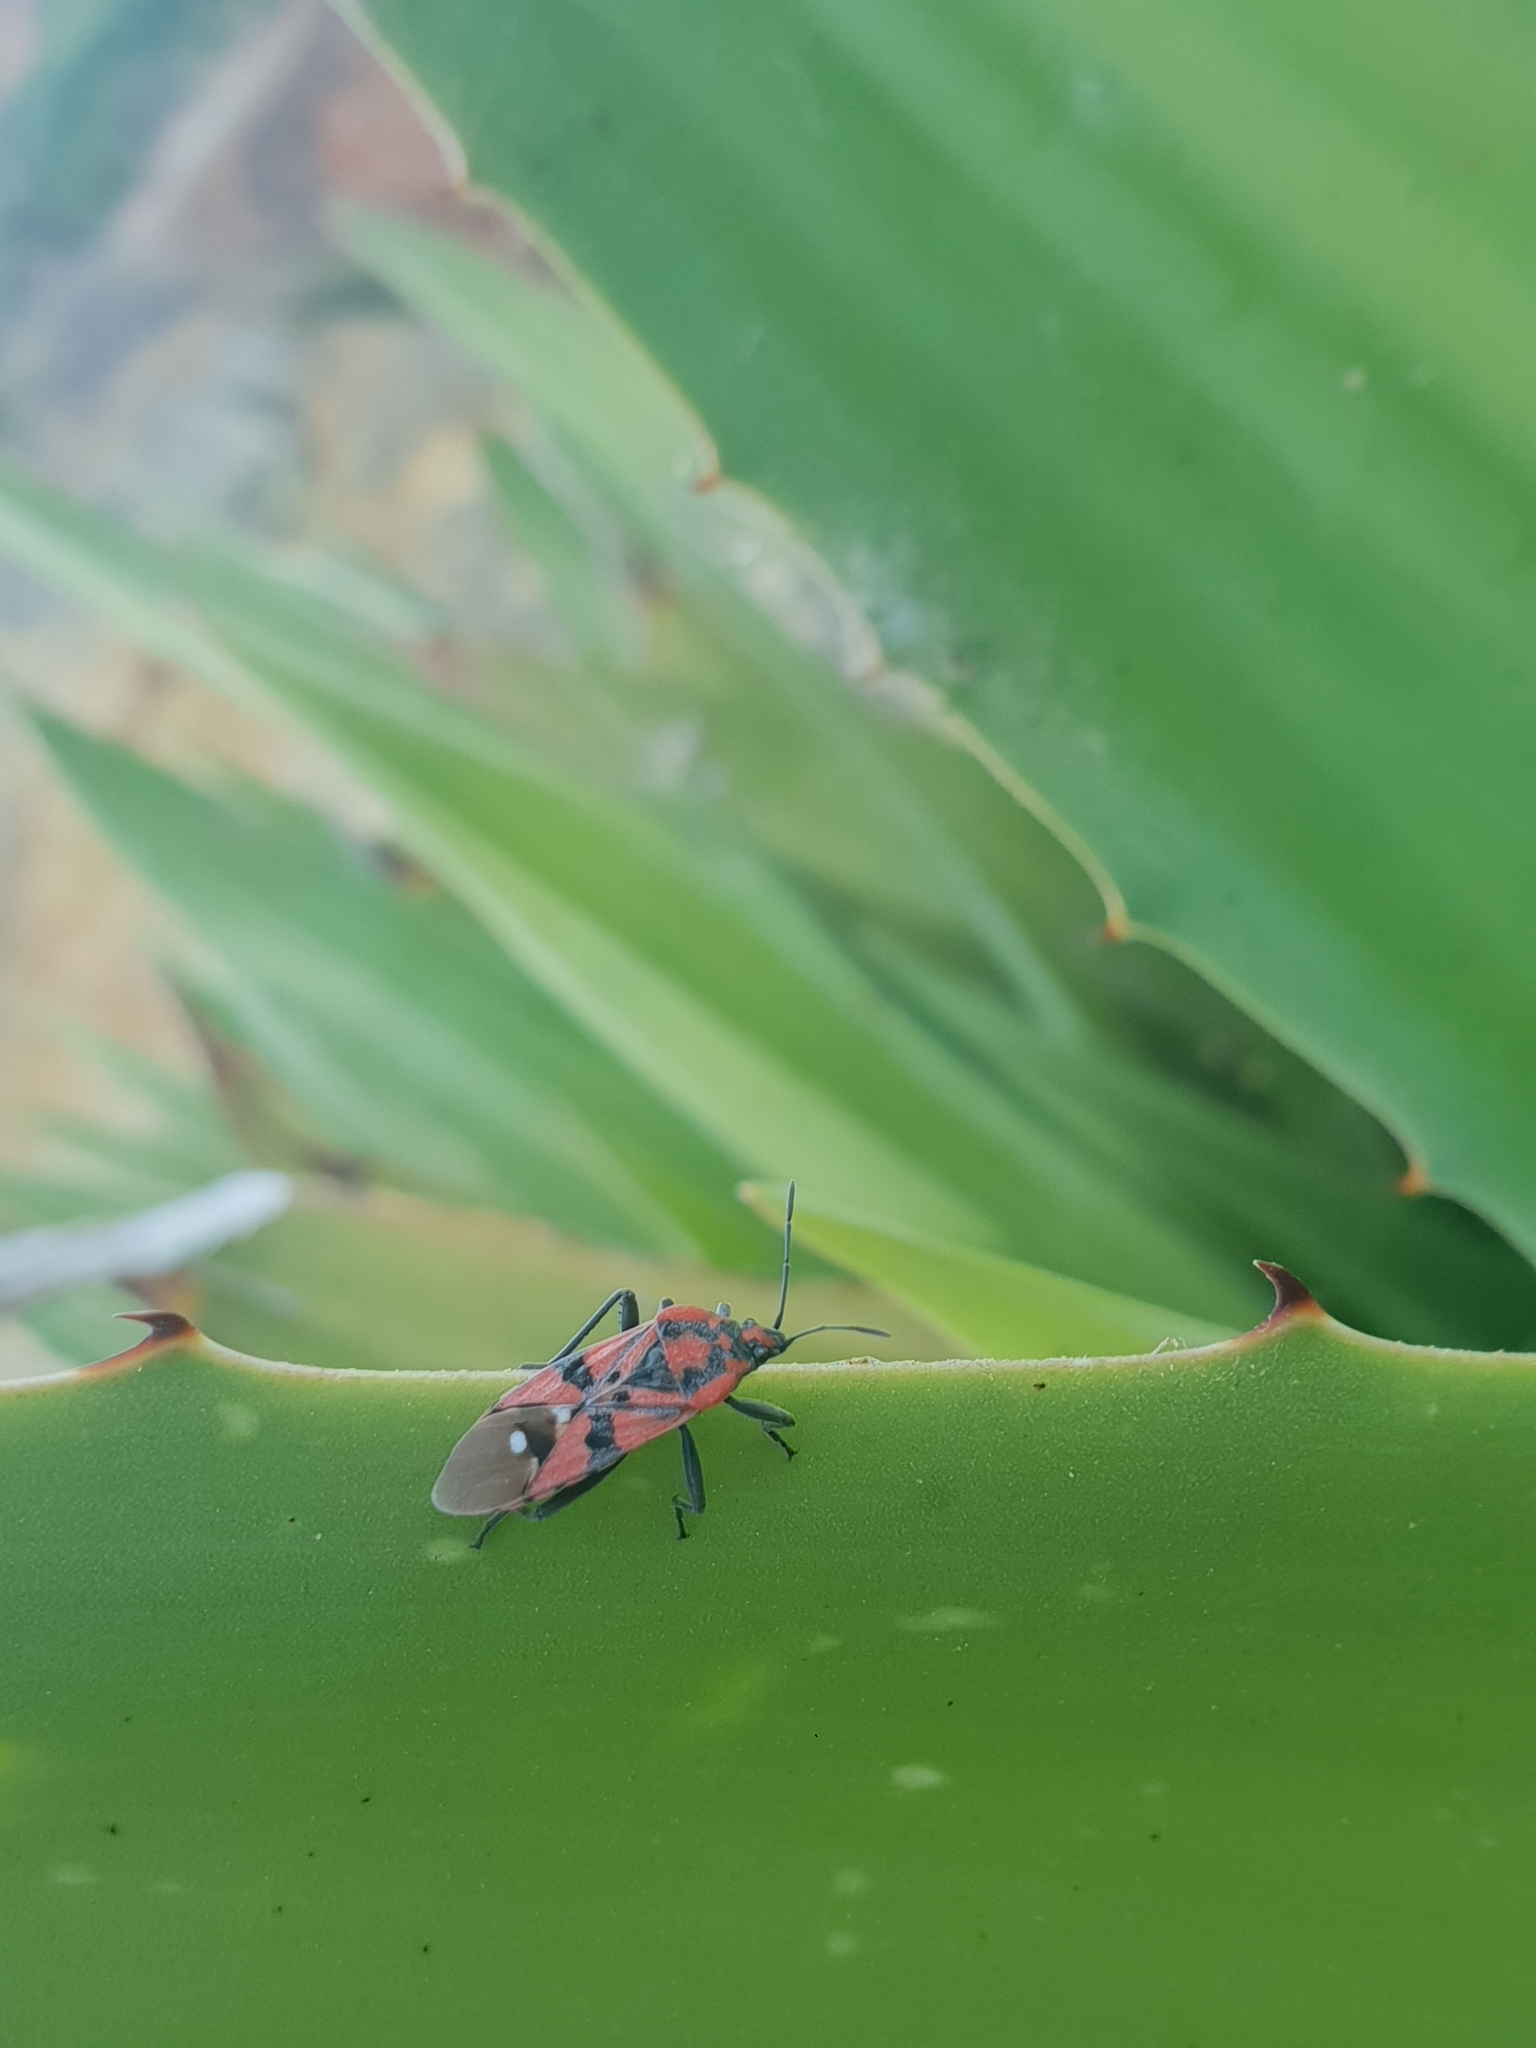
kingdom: Animalia
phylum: Arthropoda
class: Insecta
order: Hemiptera
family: Lygaeidae
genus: Spilostethus
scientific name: Spilostethus pandurus
